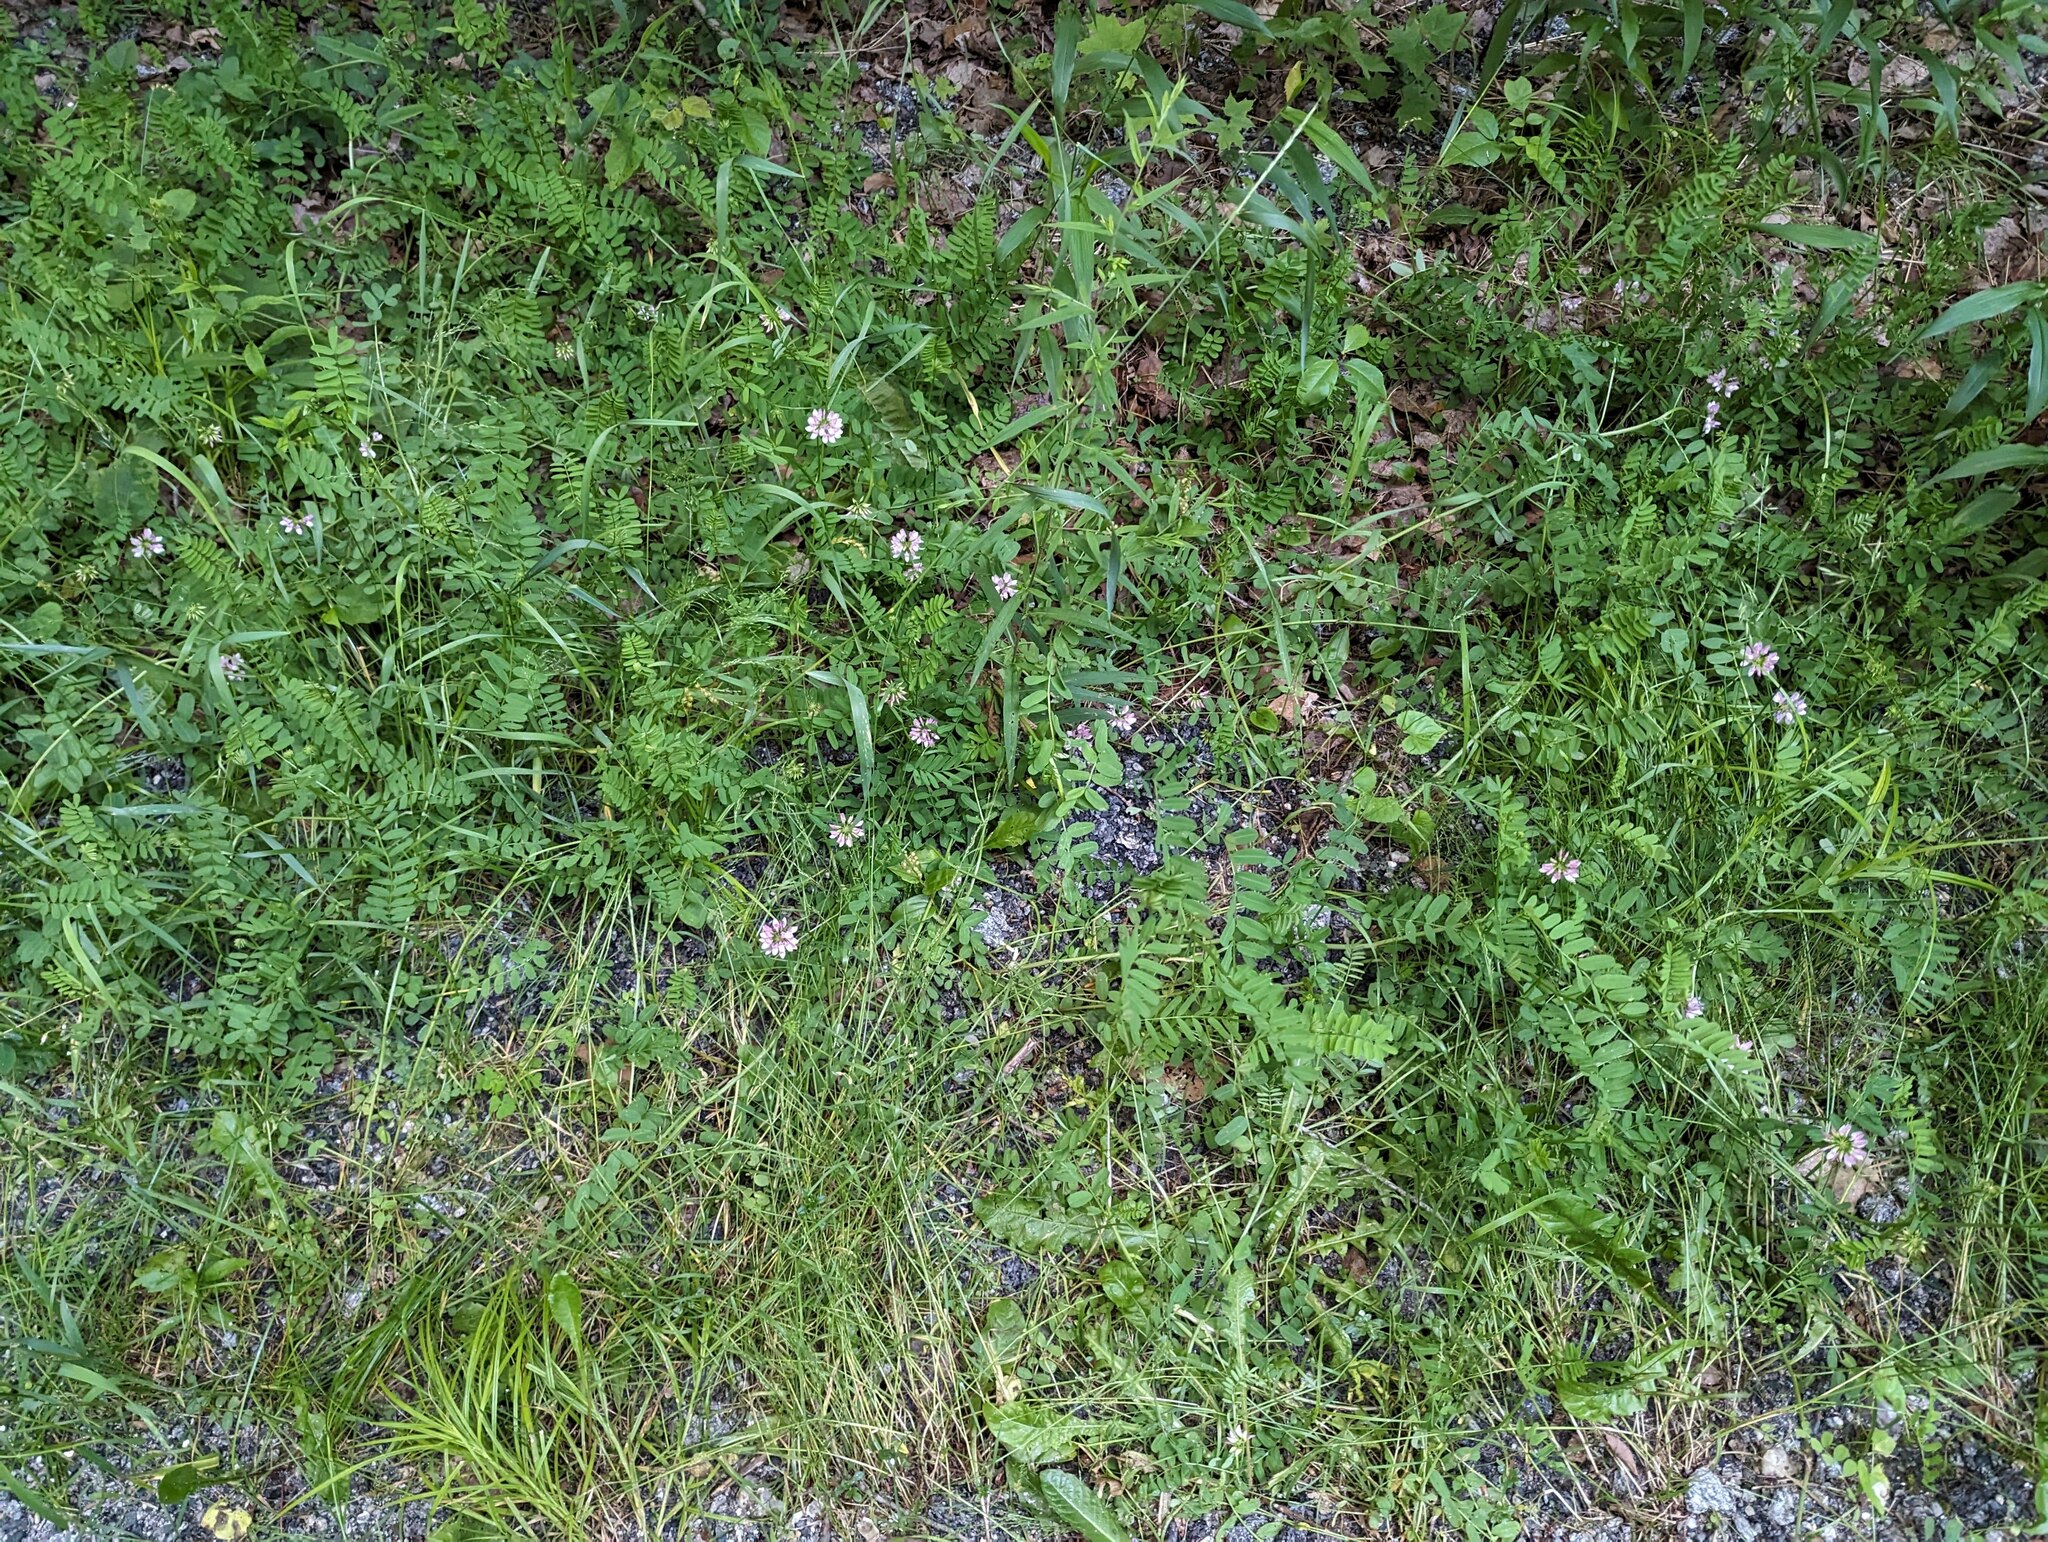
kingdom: Plantae
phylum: Tracheophyta
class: Magnoliopsida
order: Fabales
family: Fabaceae
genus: Coronilla
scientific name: Coronilla varia
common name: Crownvetch
